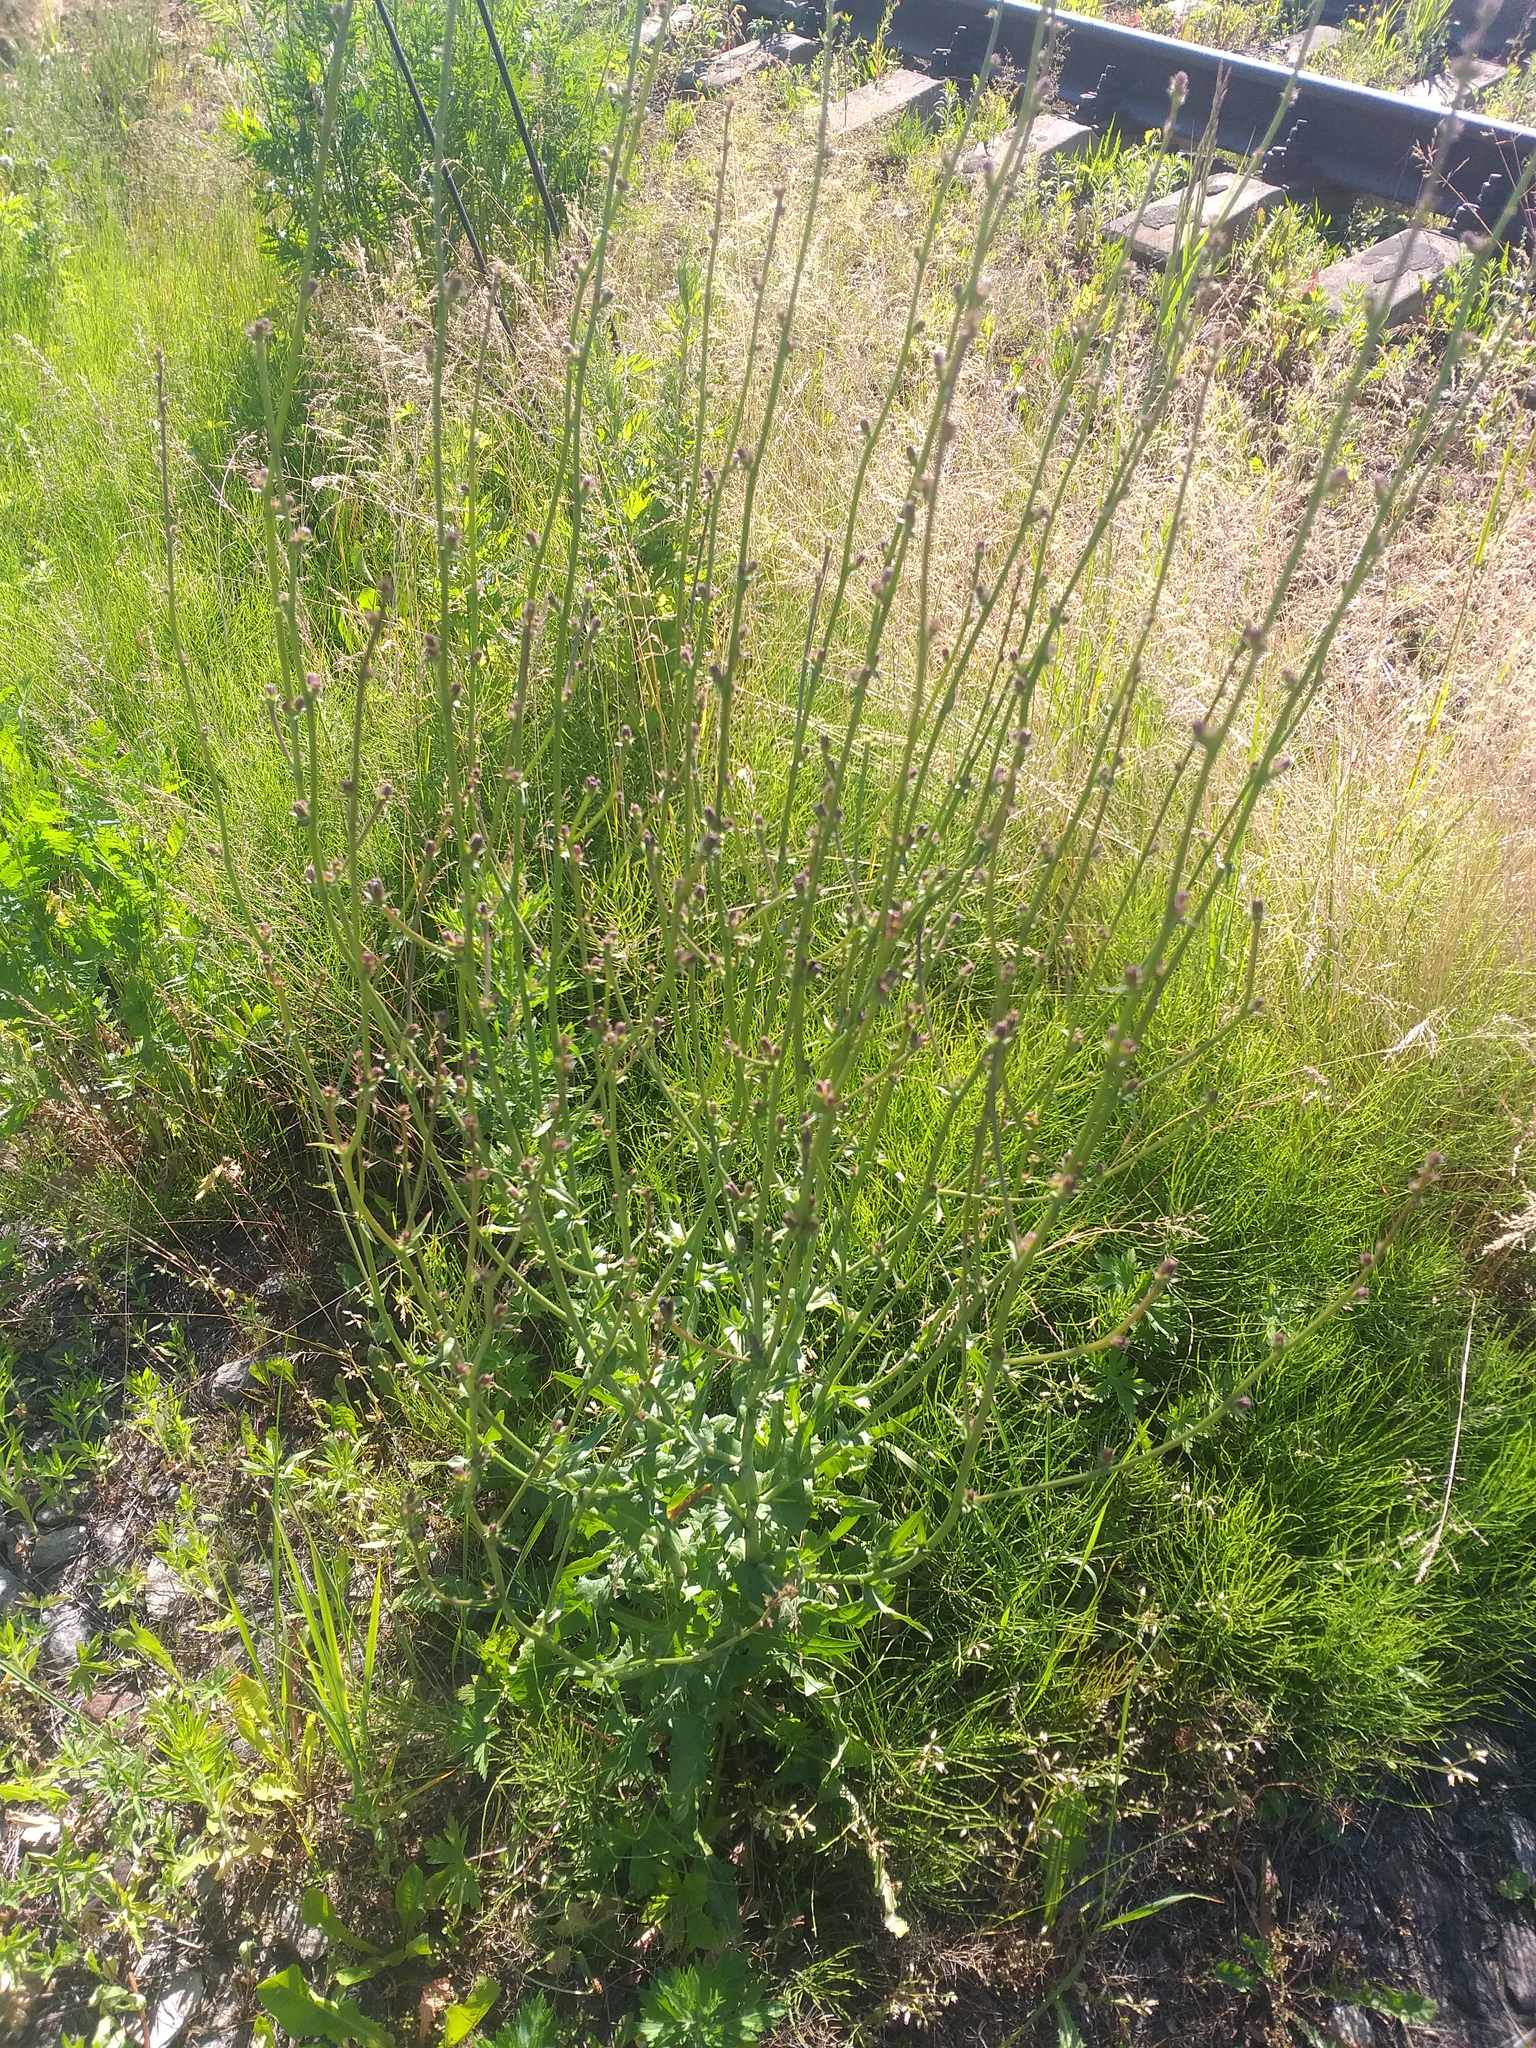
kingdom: Plantae
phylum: Tracheophyta
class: Magnoliopsida
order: Asterales
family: Asteraceae
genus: Cichorium
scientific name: Cichorium intybus
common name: Chicory
